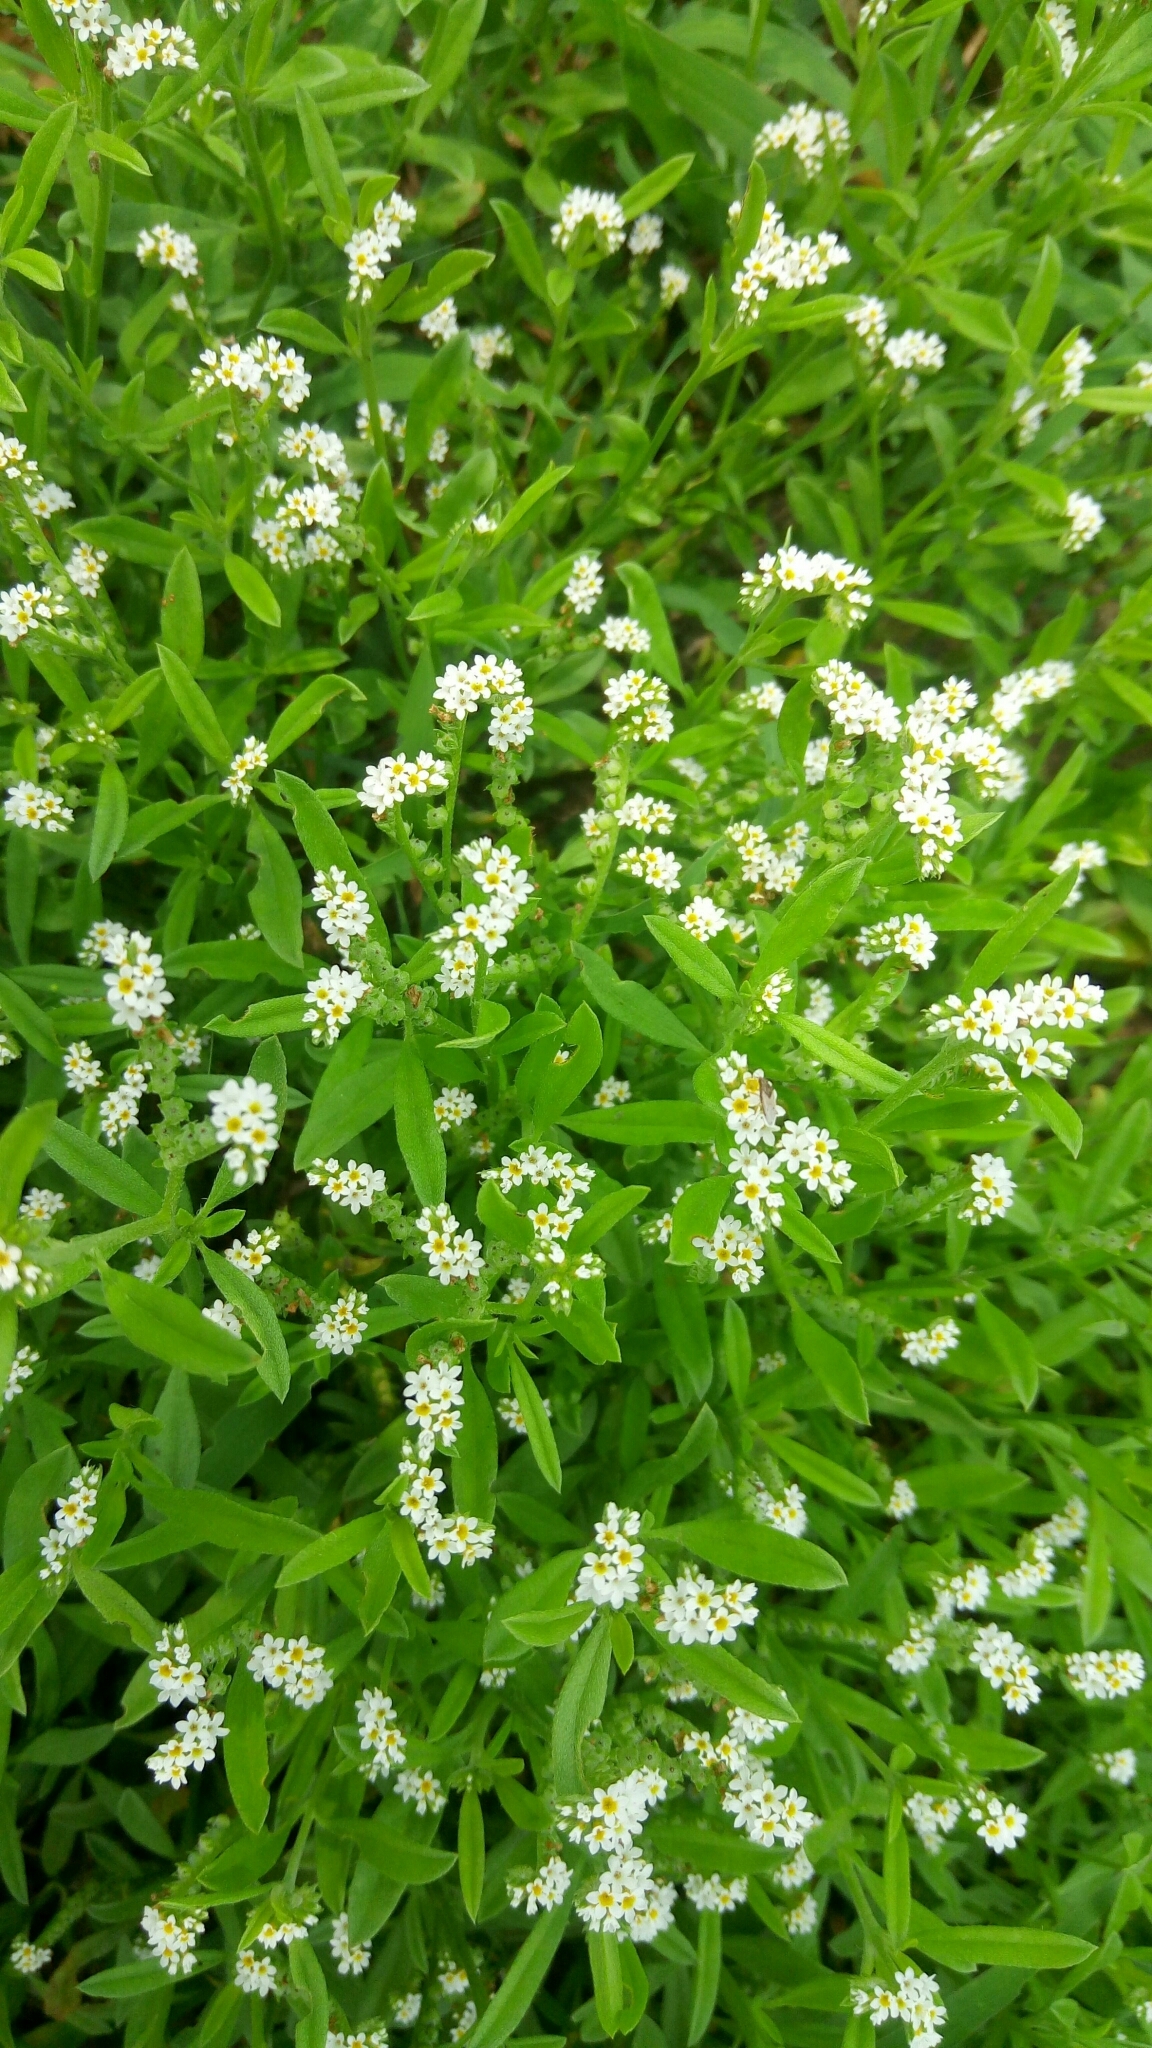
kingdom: Plantae
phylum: Tracheophyta
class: Magnoliopsida
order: Boraginales
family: Heliotropiaceae
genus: Euploca
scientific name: Euploca procumbens
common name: Fourspike heliotrope
